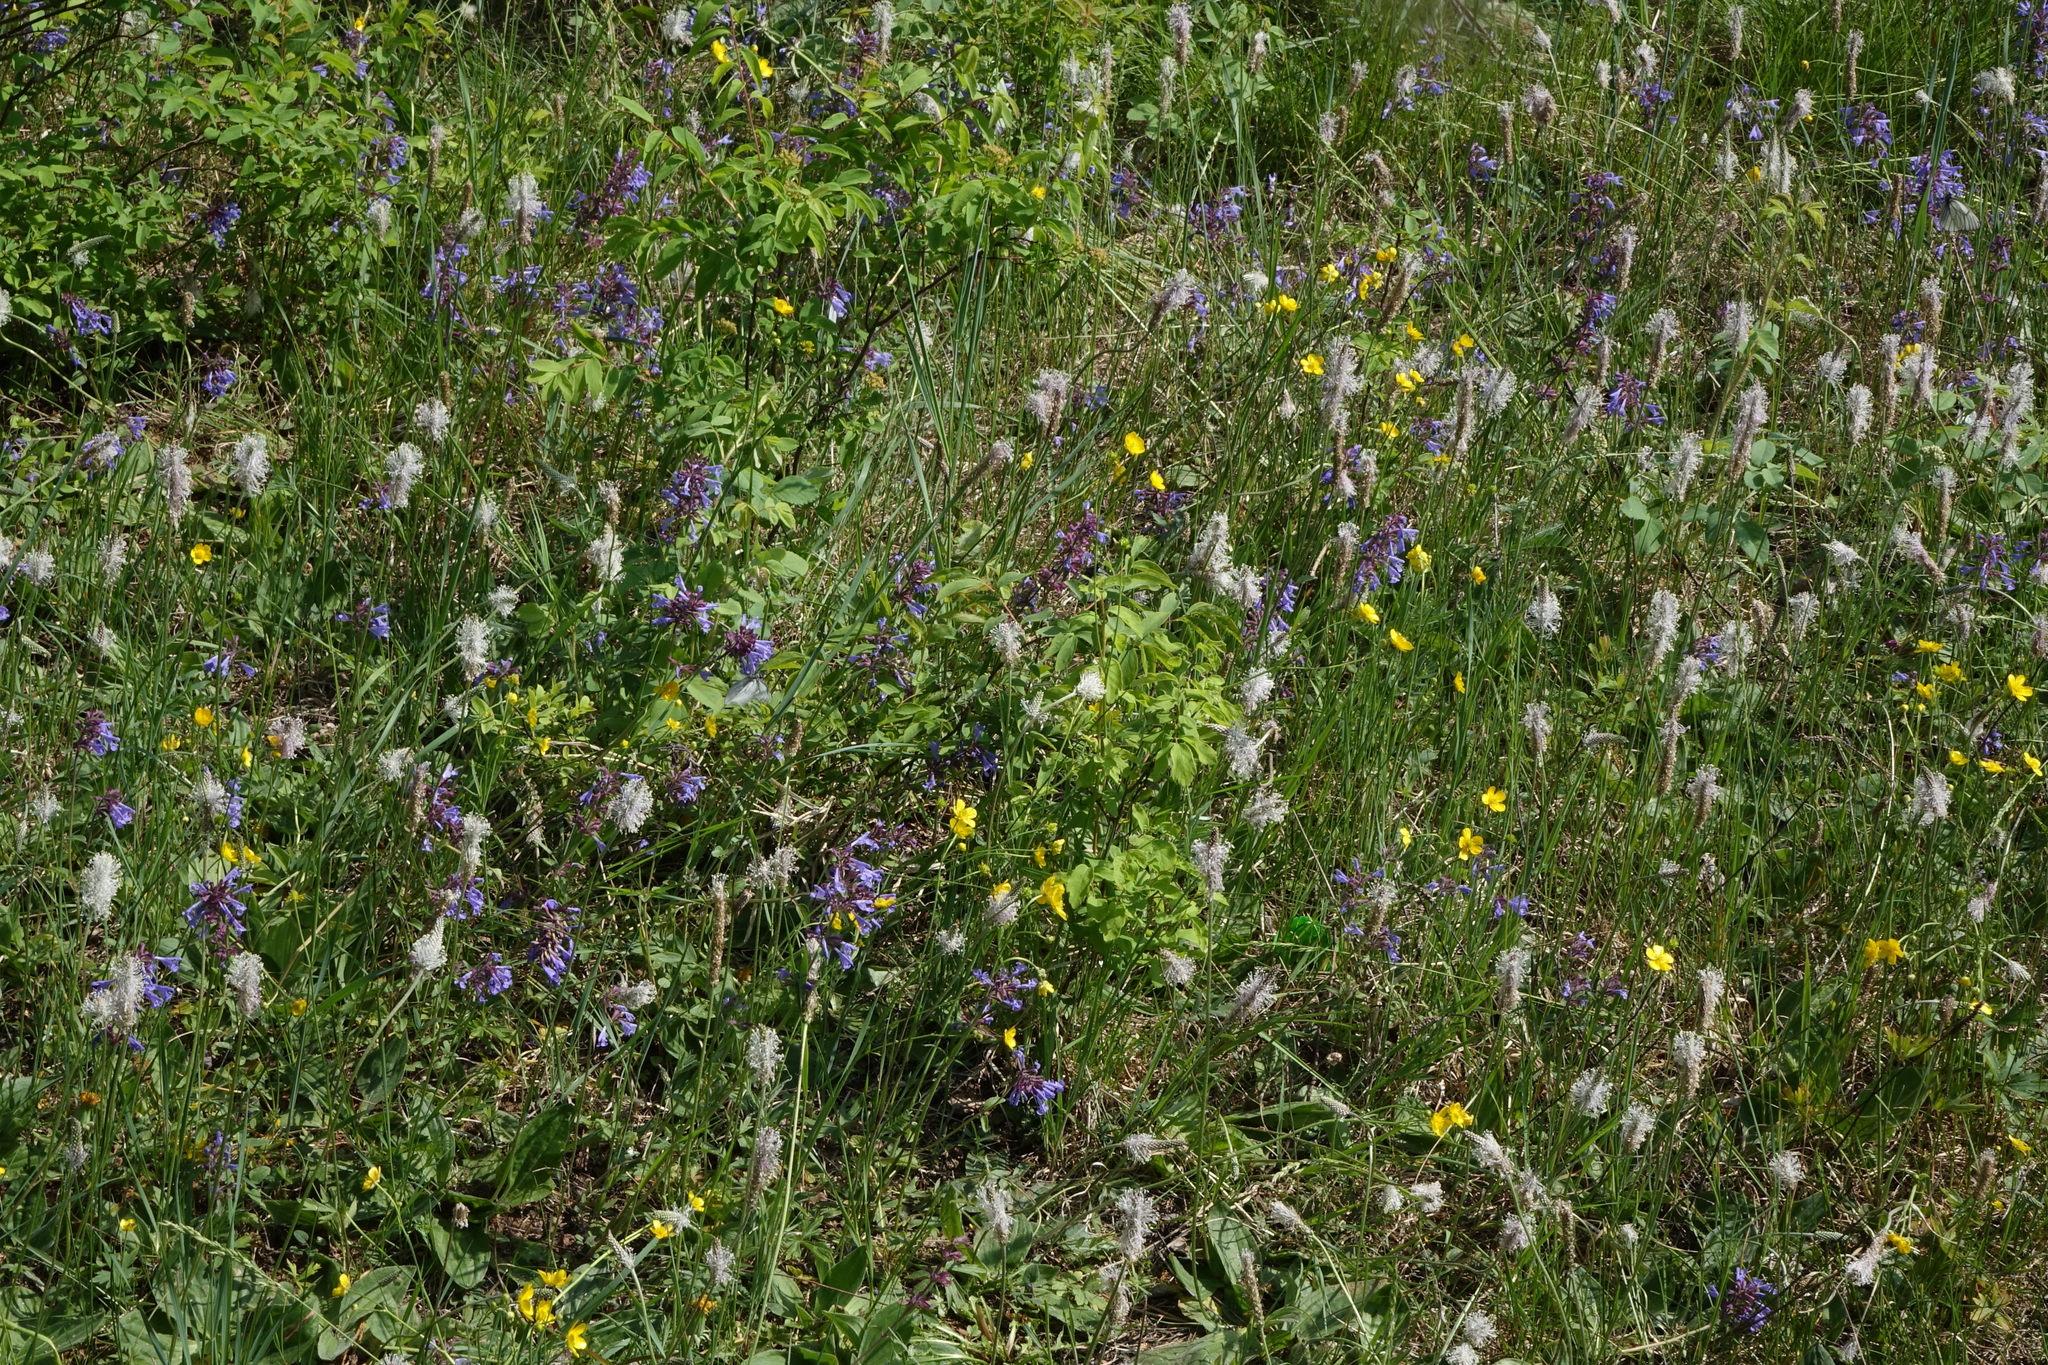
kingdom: Plantae
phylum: Tracheophyta
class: Magnoliopsida
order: Lamiales
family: Plantaginaceae
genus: Plantago
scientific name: Plantago media
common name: Hoary plantain
